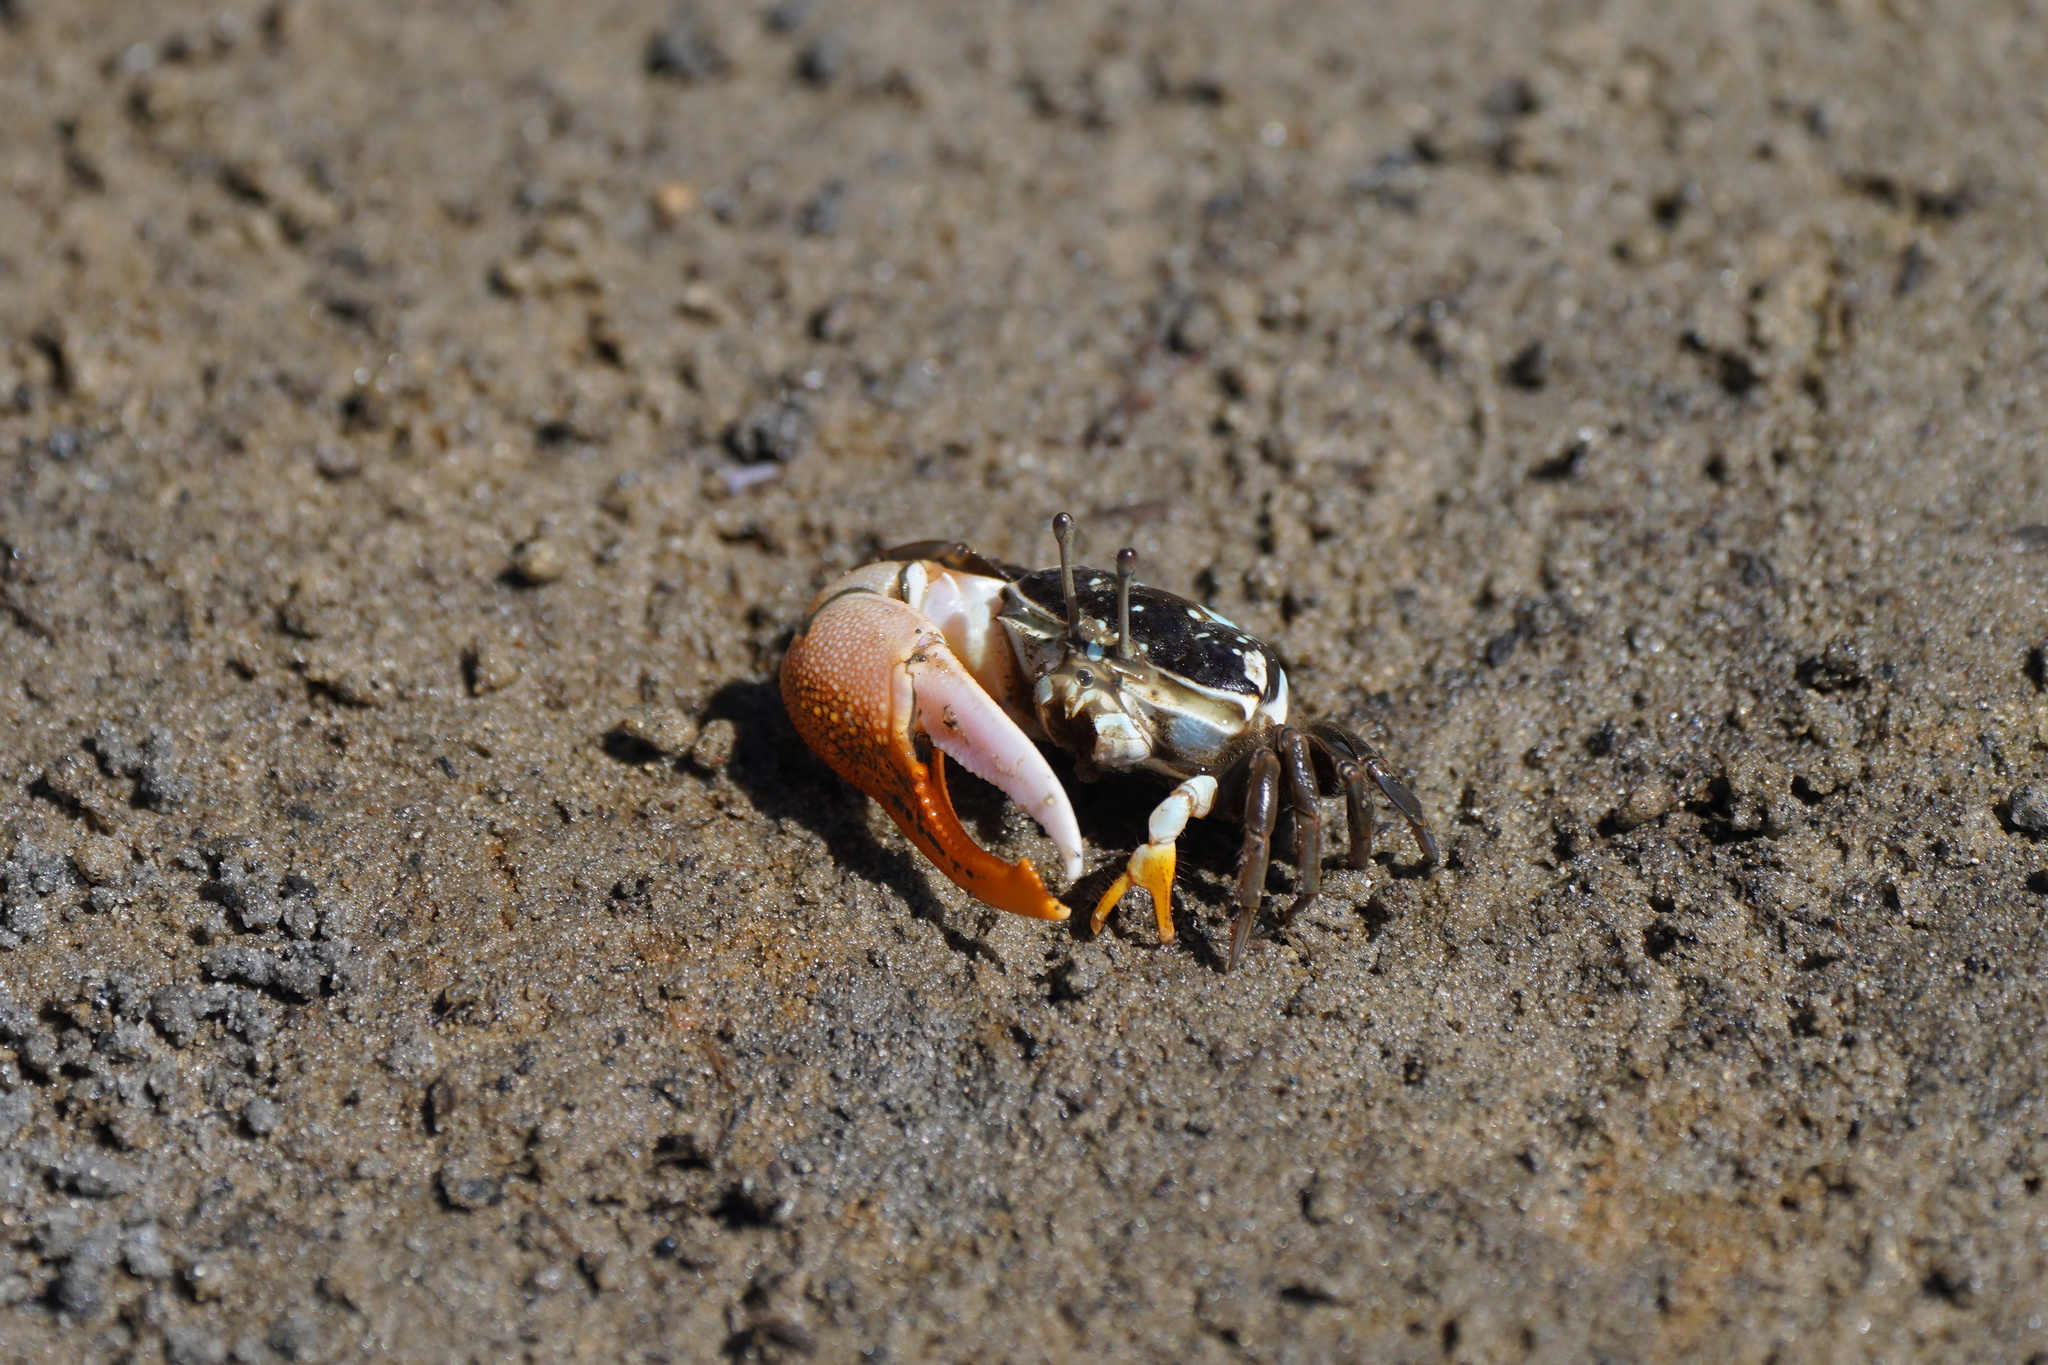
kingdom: Animalia
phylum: Arthropoda
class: Malacostraca
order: Decapoda
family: Ocypodidae
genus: Gelasimus
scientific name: Gelasimus vomeris
